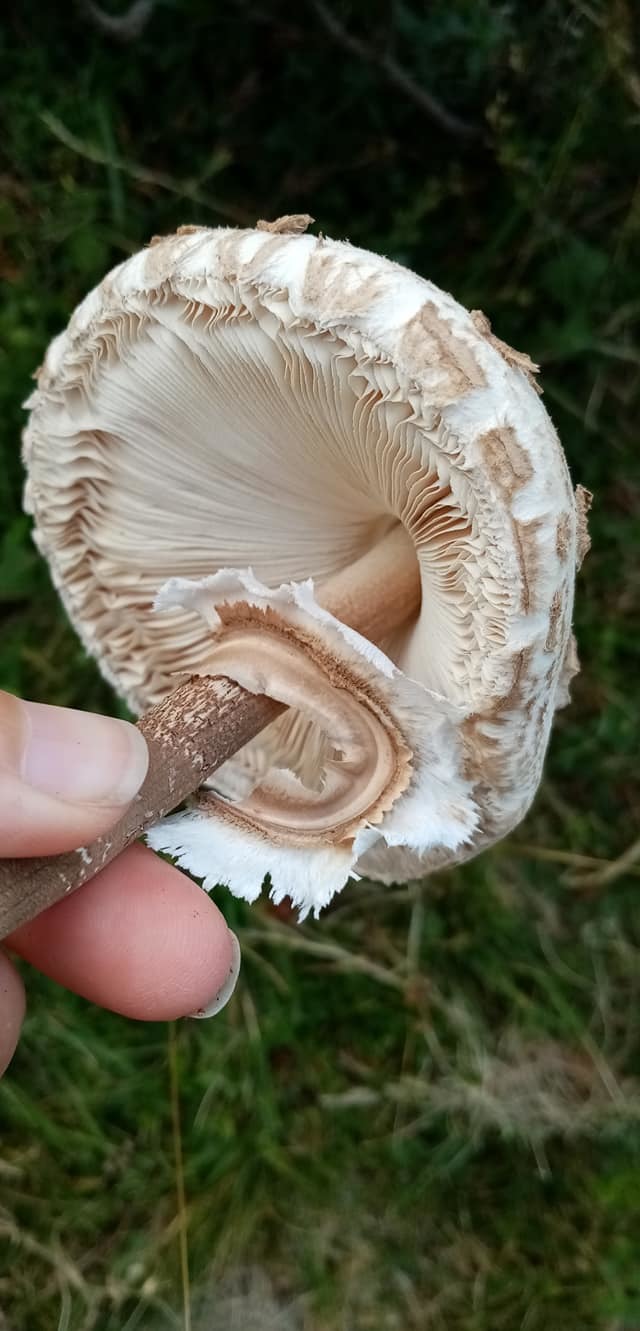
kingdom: Fungi
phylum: Basidiomycota
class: Agaricomycetes
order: Agaricales
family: Agaricaceae
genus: Macrolepiota
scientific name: Macrolepiota procera
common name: Parasol
